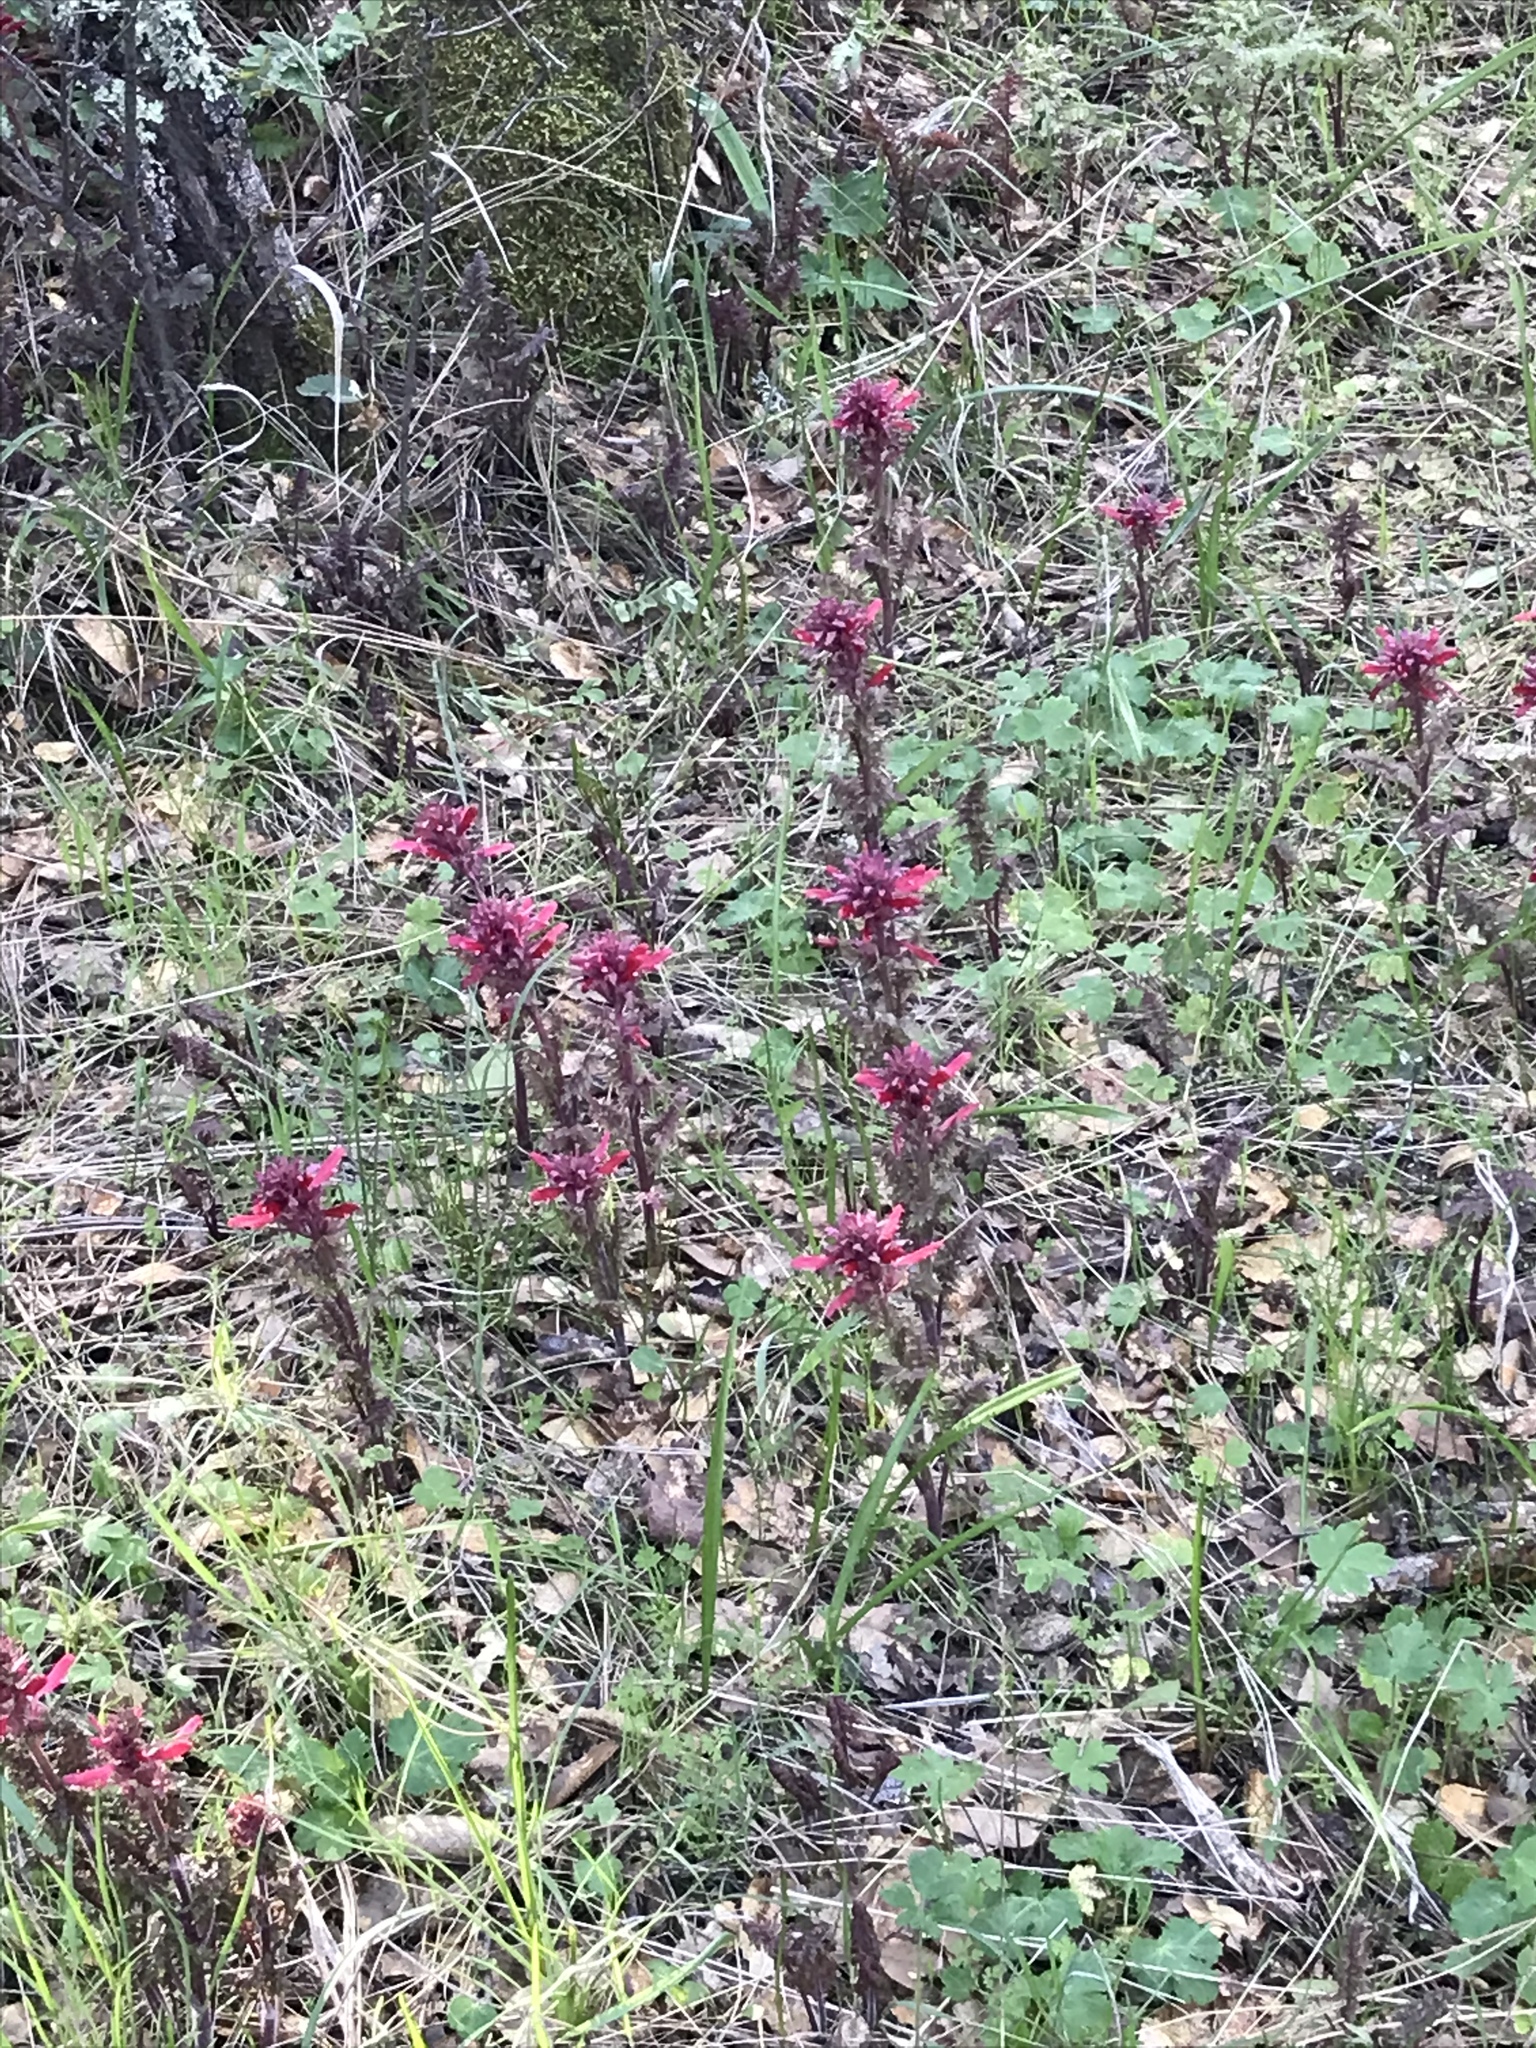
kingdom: Plantae
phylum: Tracheophyta
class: Magnoliopsida
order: Lamiales
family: Orobanchaceae
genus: Pedicularis
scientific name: Pedicularis densiflora
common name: Indian warrior
